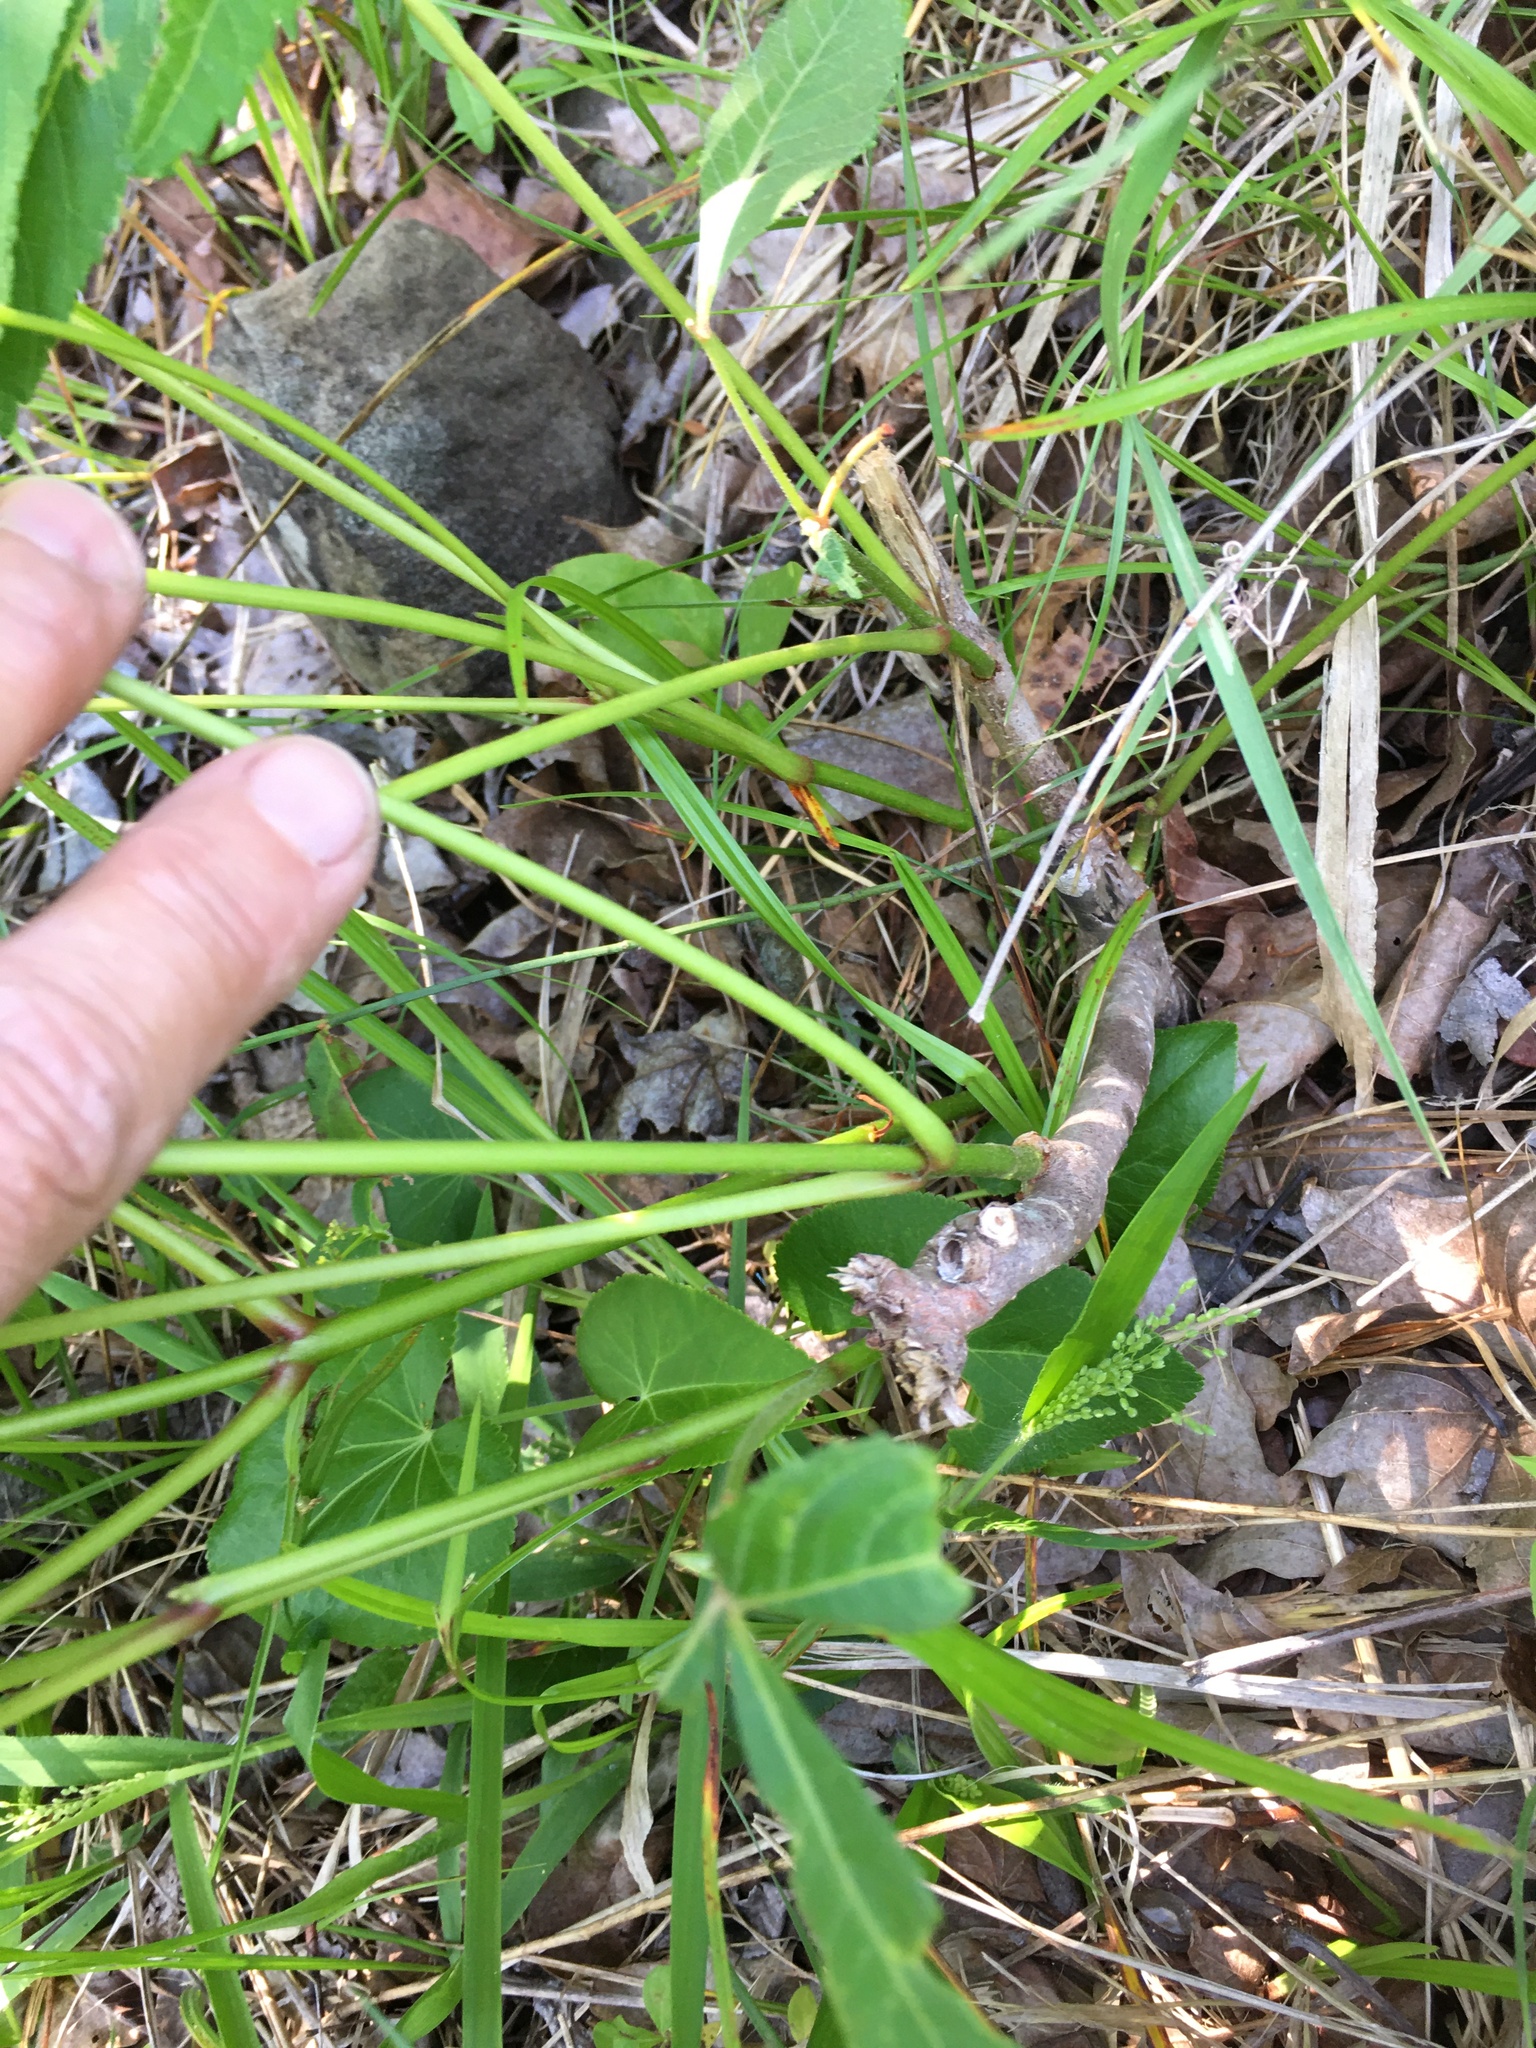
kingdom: Plantae
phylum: Tracheophyta
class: Magnoliopsida
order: Sapindales
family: Sapindaceae
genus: Aesculus
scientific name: Aesculus sylvatica
